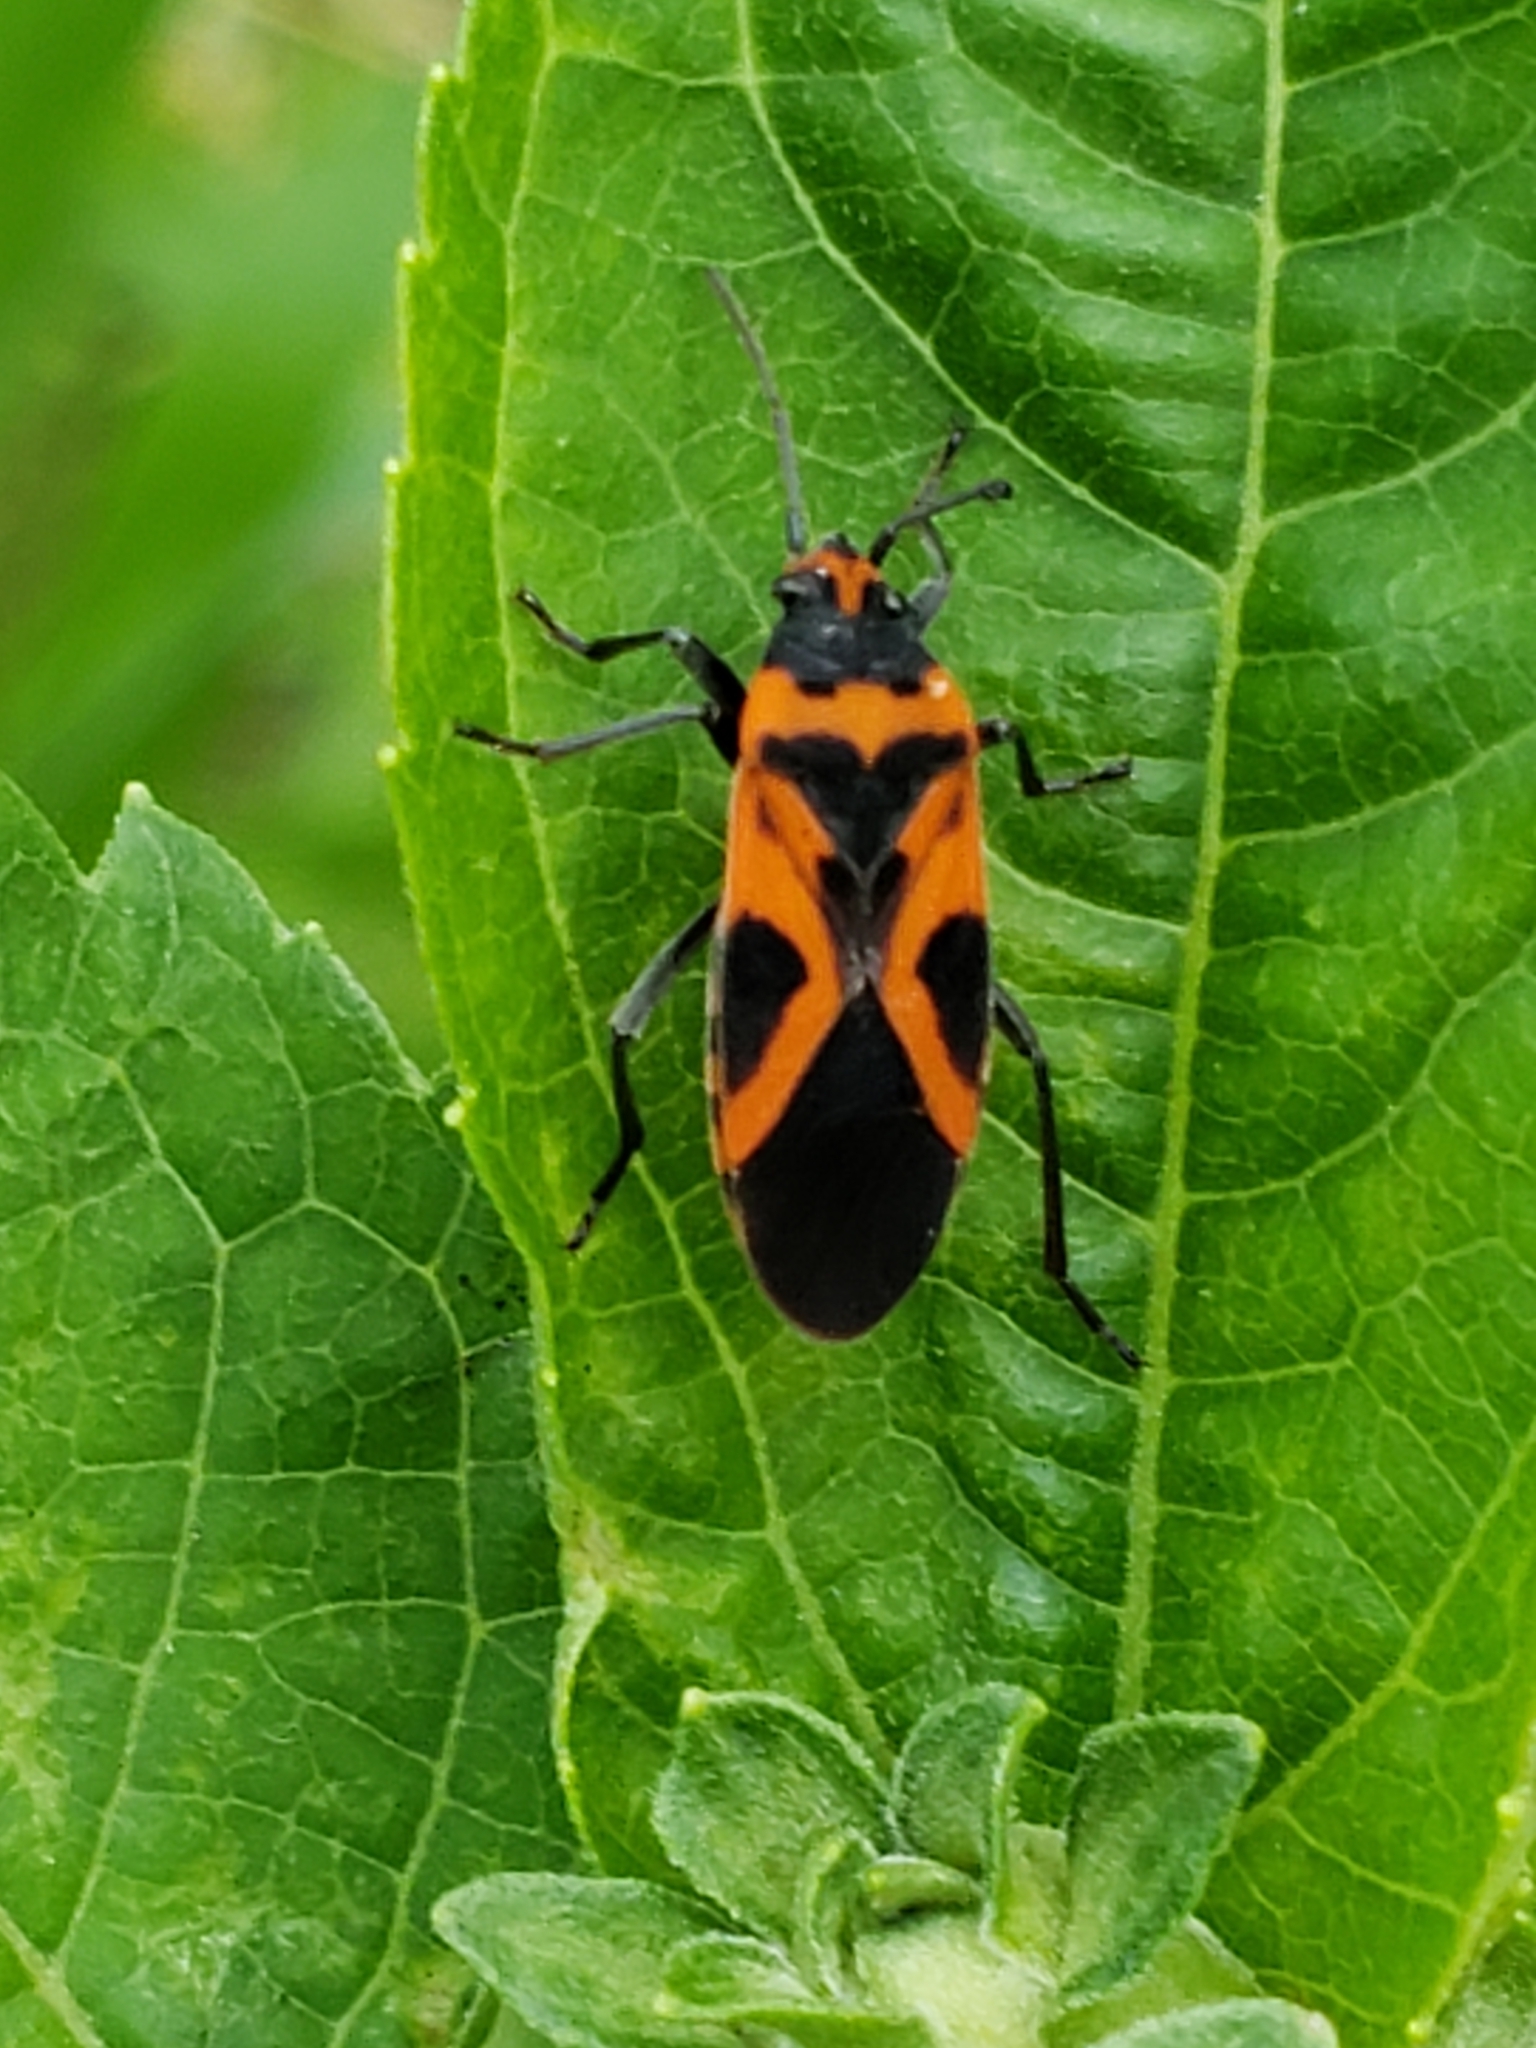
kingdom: Animalia
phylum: Arthropoda
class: Insecta
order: Hemiptera
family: Lygaeidae
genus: Lygaeus
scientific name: Lygaeus turcicus
